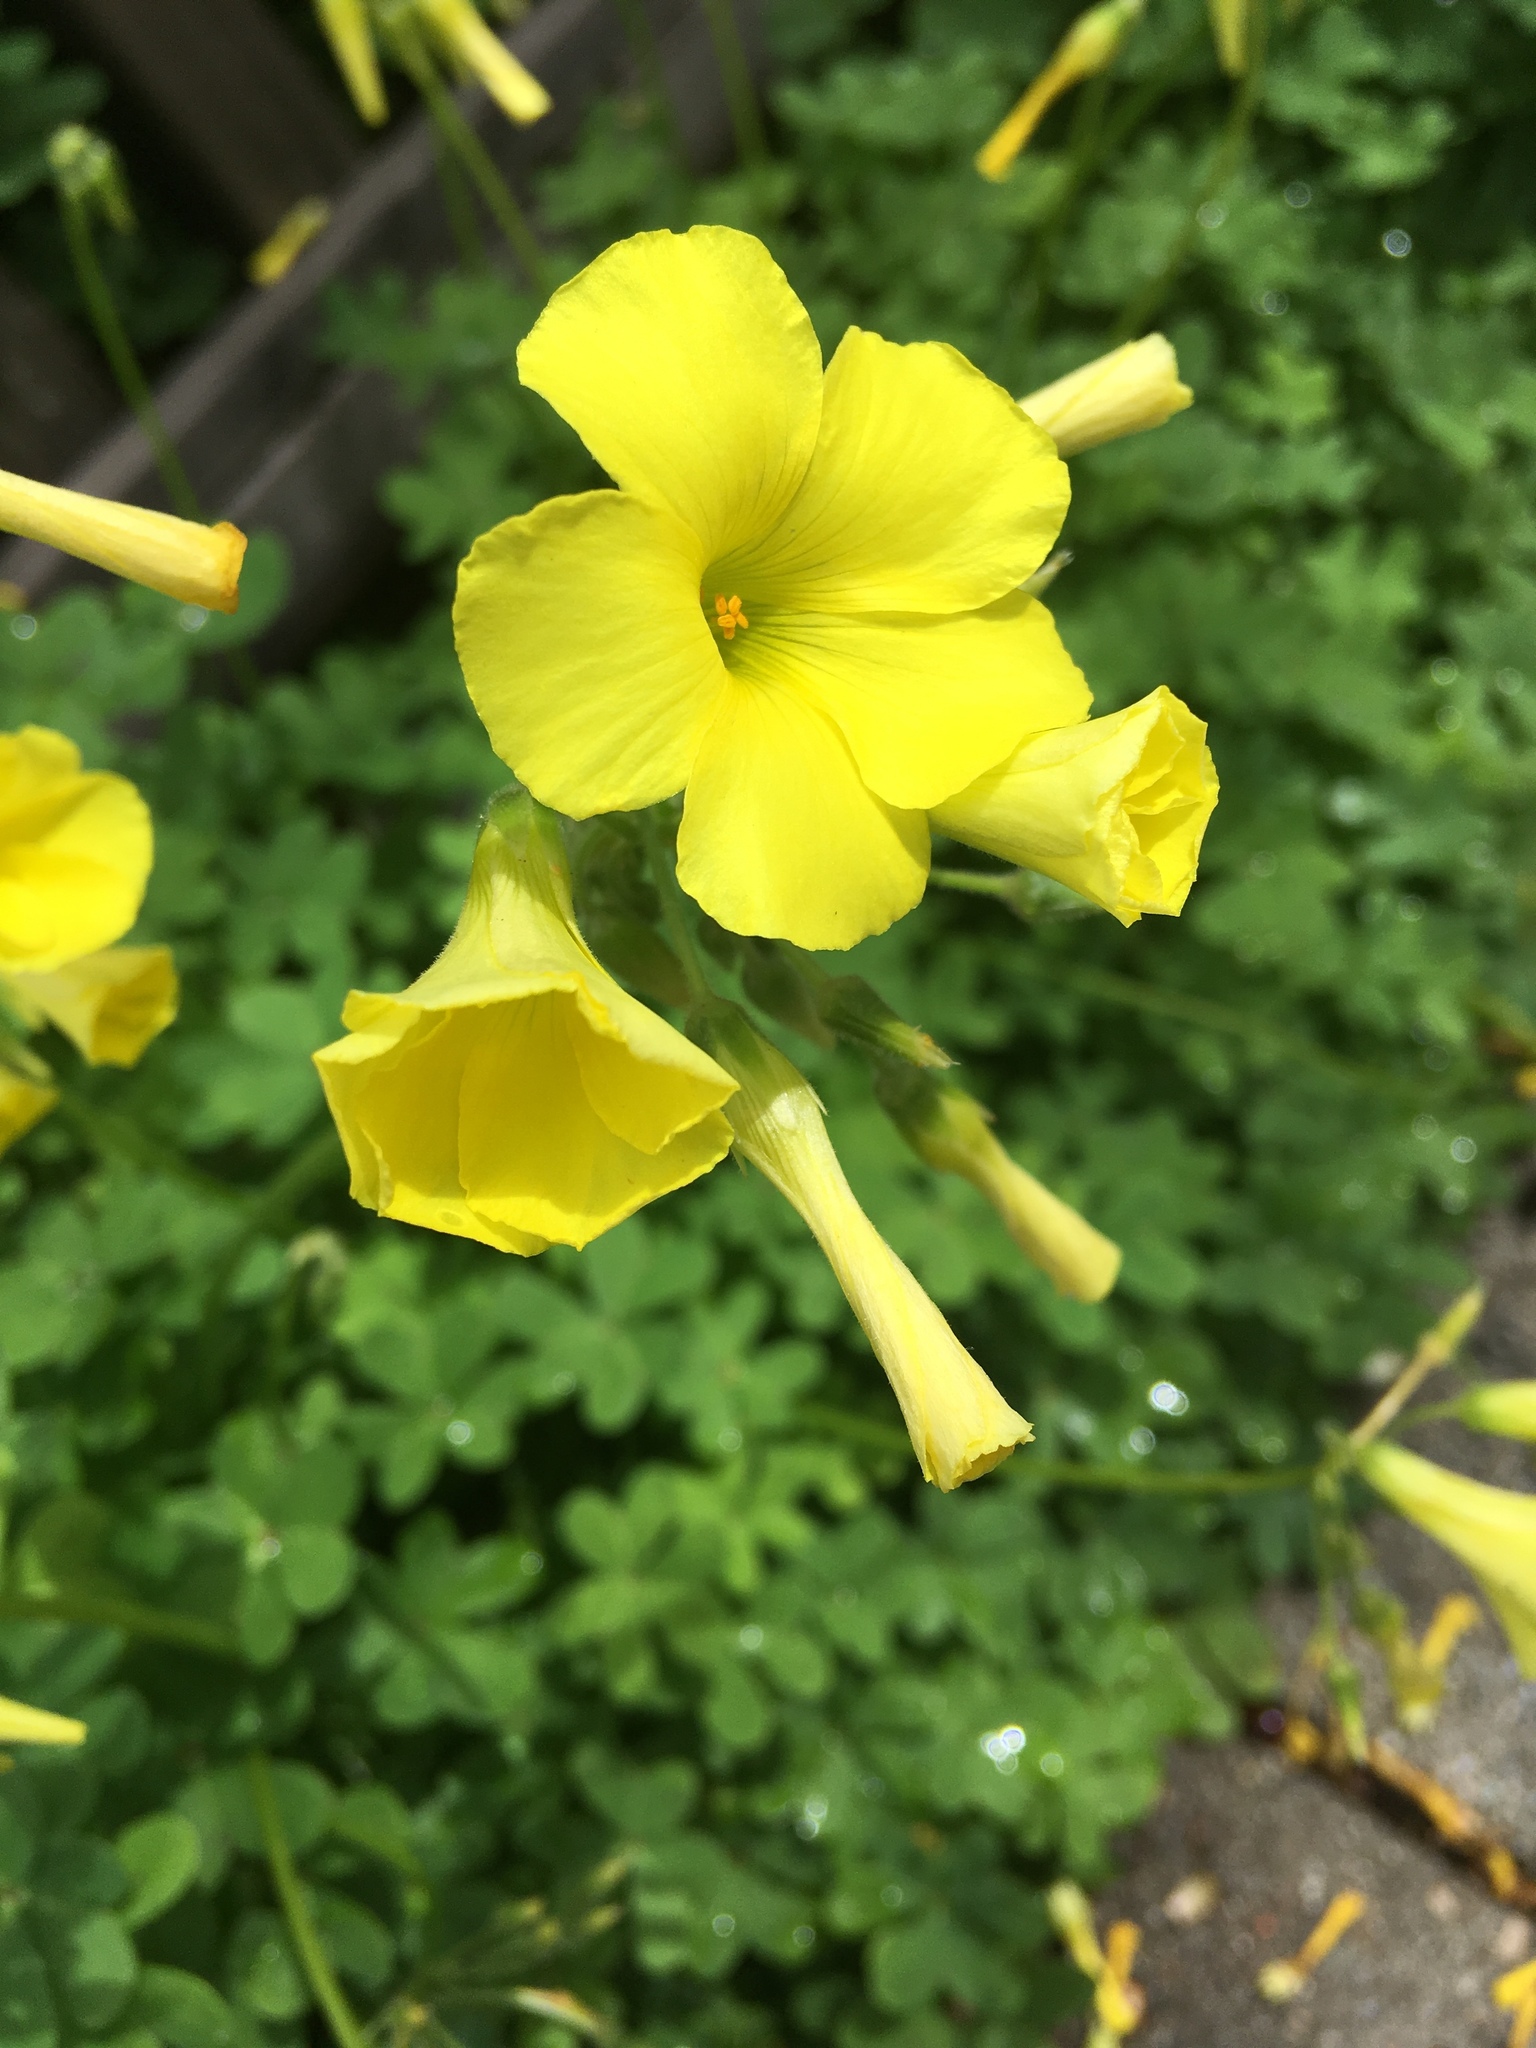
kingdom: Plantae
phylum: Tracheophyta
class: Magnoliopsida
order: Oxalidales
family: Oxalidaceae
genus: Oxalis
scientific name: Oxalis pes-caprae
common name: Bermuda-buttercup
